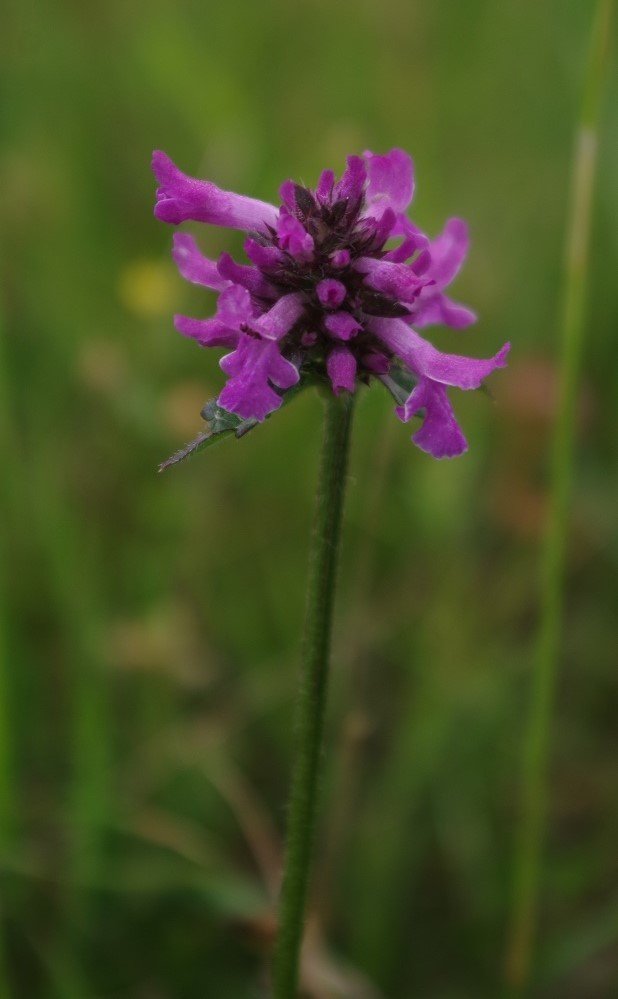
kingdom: Plantae
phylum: Tracheophyta
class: Magnoliopsida
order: Lamiales
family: Lamiaceae
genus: Betonica
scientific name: Betonica officinalis
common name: Bishop's-wort
